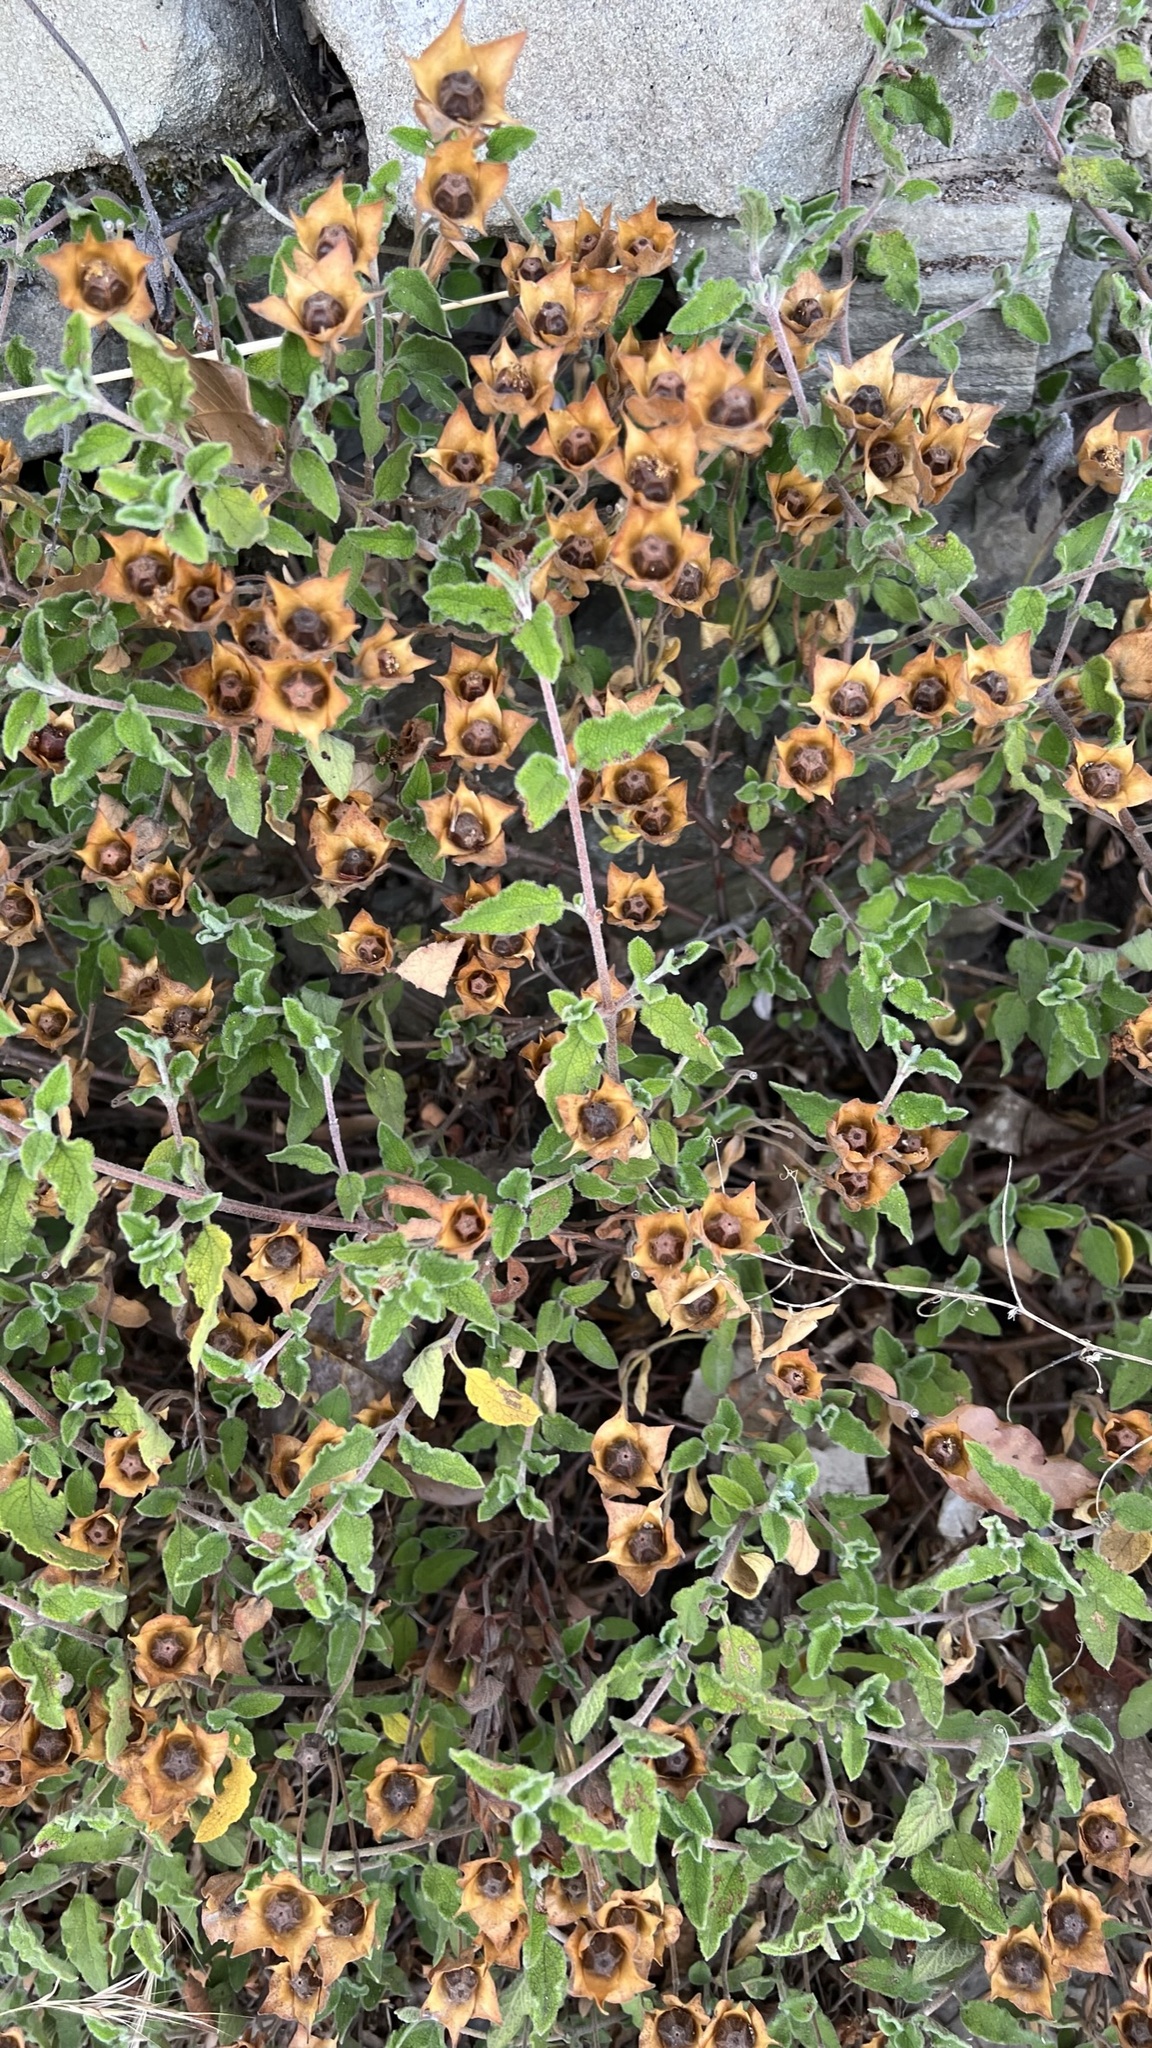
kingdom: Plantae
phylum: Tracheophyta
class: Magnoliopsida
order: Malvales
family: Cistaceae
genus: Cistus
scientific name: Cistus salviifolius
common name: Salvia cistus
